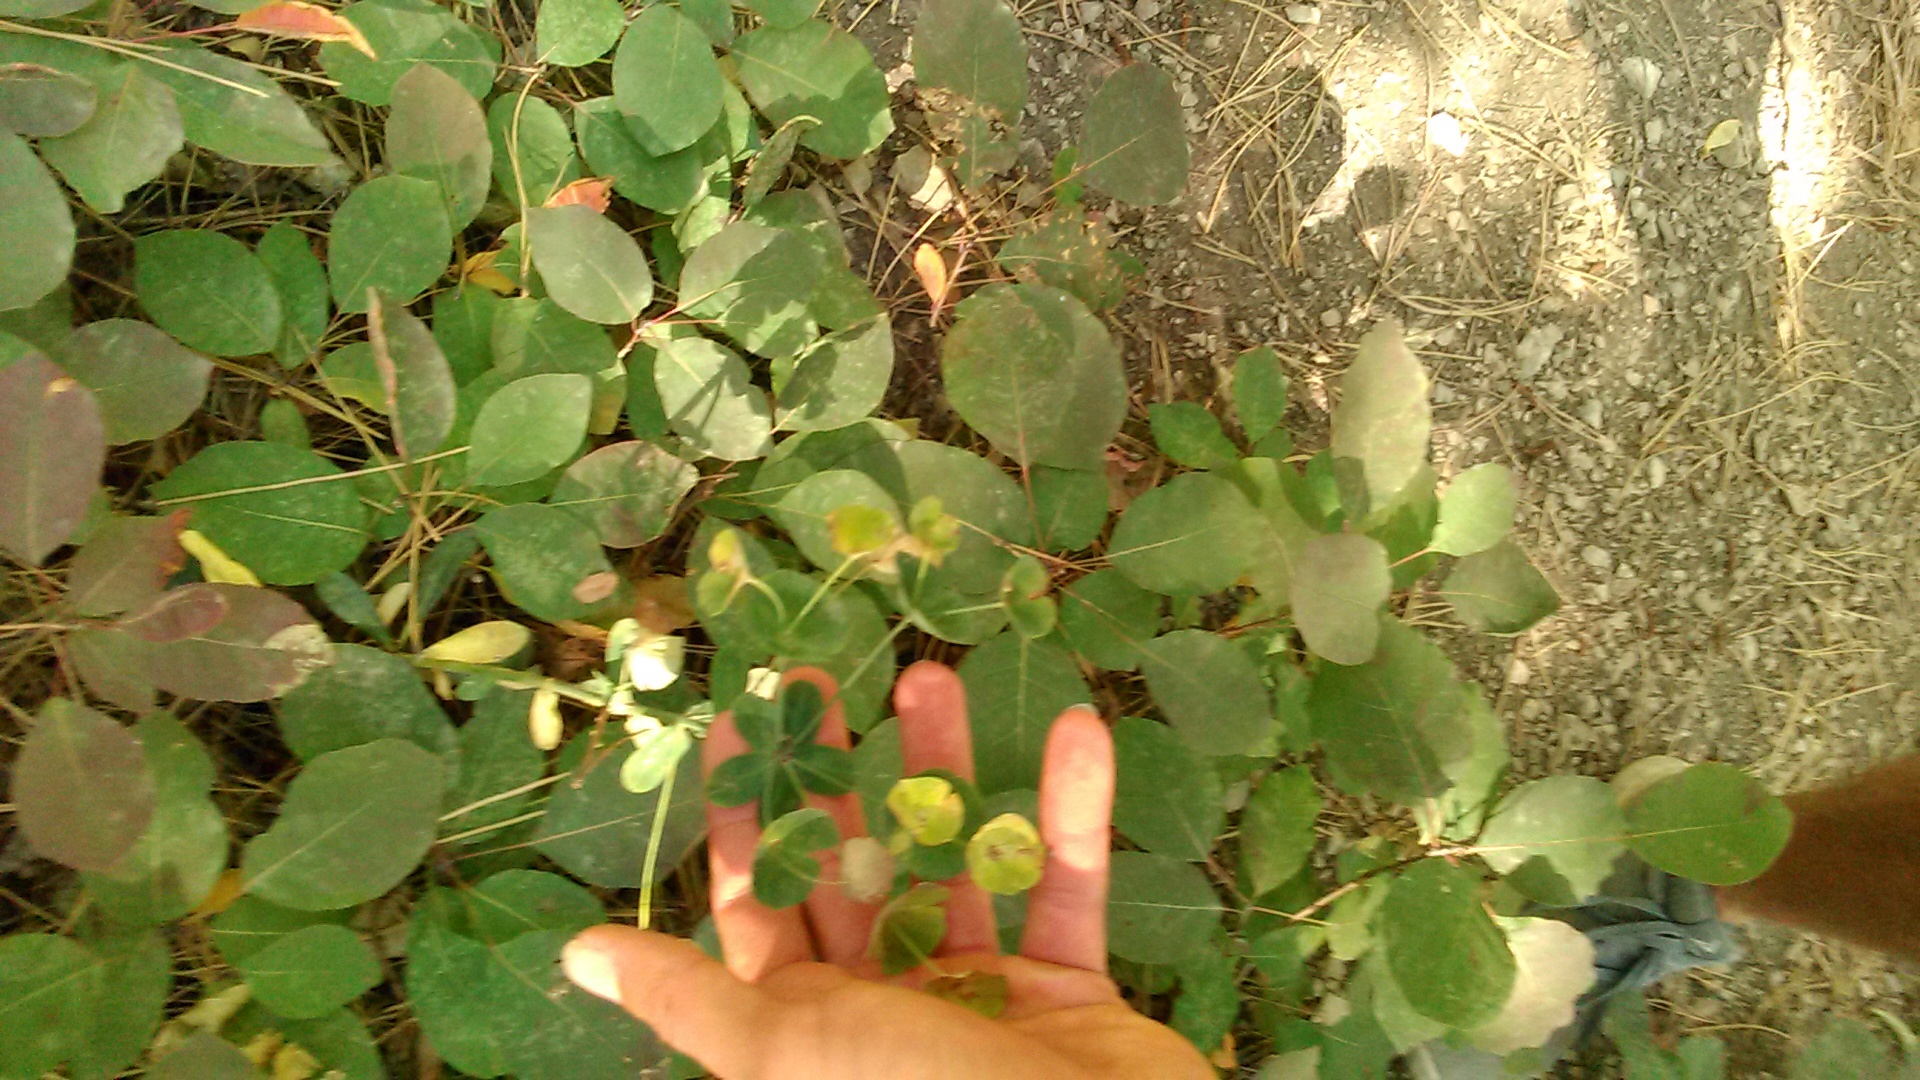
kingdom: Plantae
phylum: Tracheophyta
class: Magnoliopsida
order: Malpighiales
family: Euphorbiaceae
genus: Euphorbia
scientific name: Euphorbia amygdaloides
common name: Wood spurge
